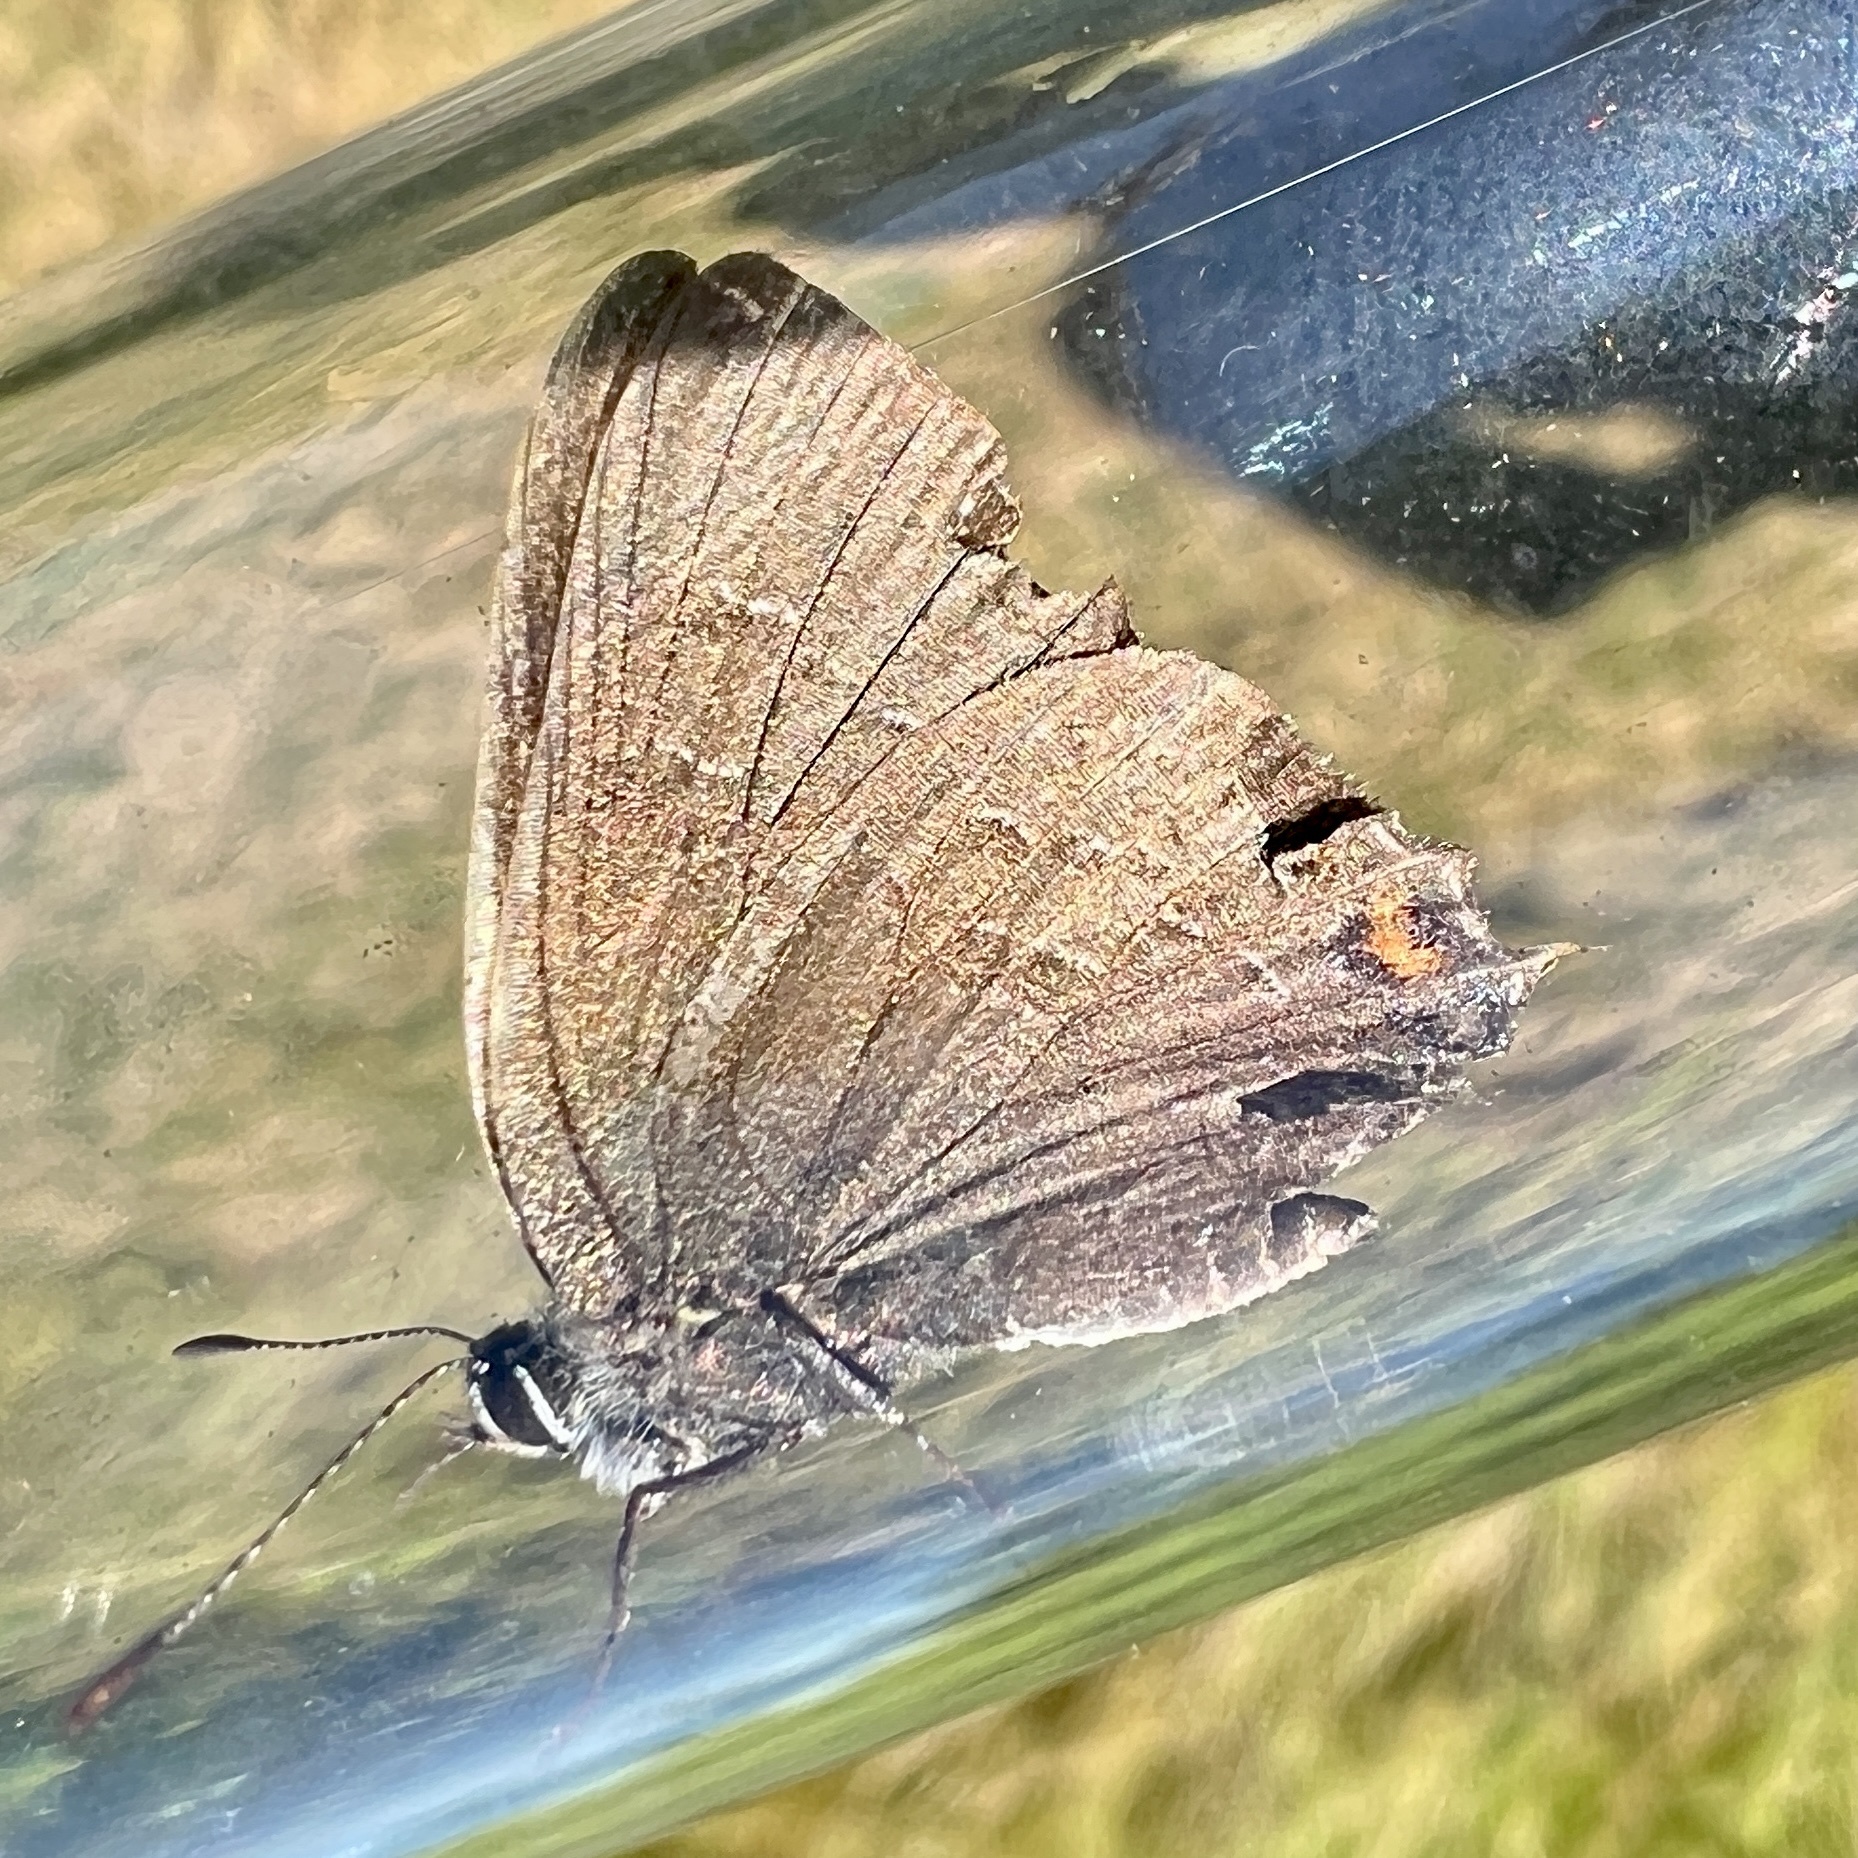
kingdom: Animalia
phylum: Arthropoda
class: Insecta
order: Lepidoptera
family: Lycaenidae
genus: Satyrium
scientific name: Satyrium calanus
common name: Banded hairstreak
